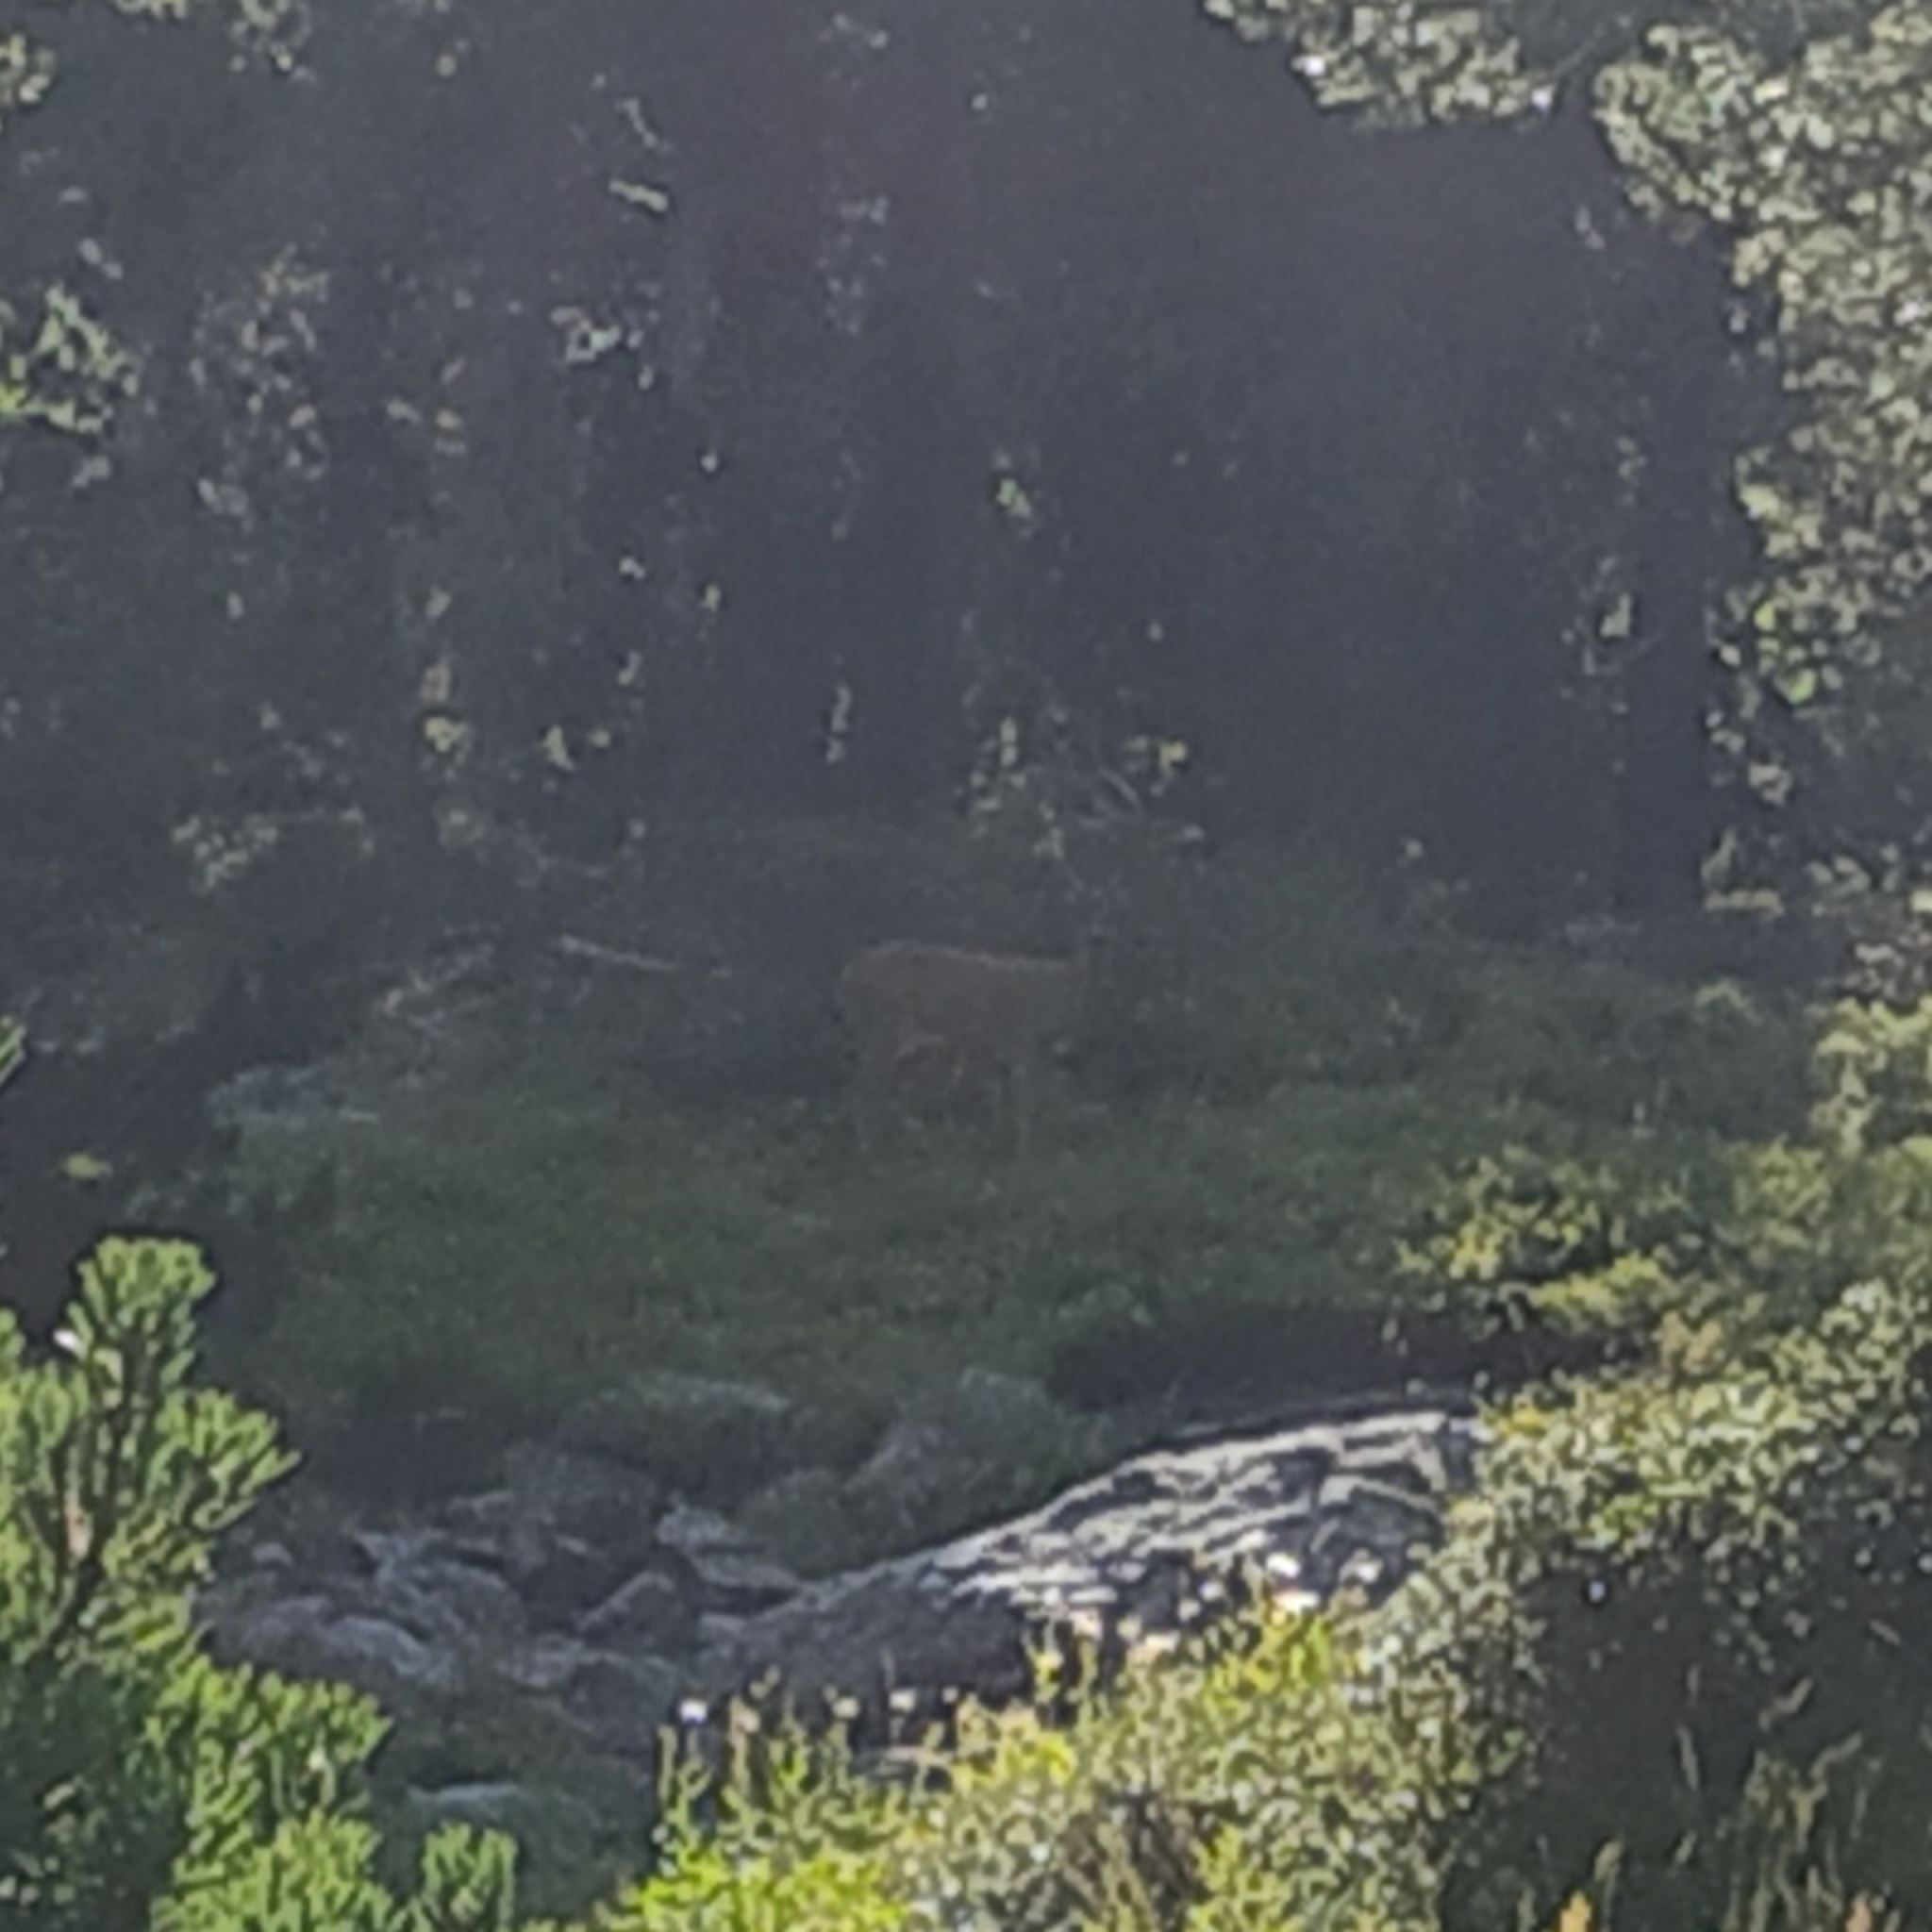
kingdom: Animalia
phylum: Chordata
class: Mammalia
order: Artiodactyla
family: Cervidae
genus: Capreolus
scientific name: Capreolus capreolus
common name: Western roe deer
